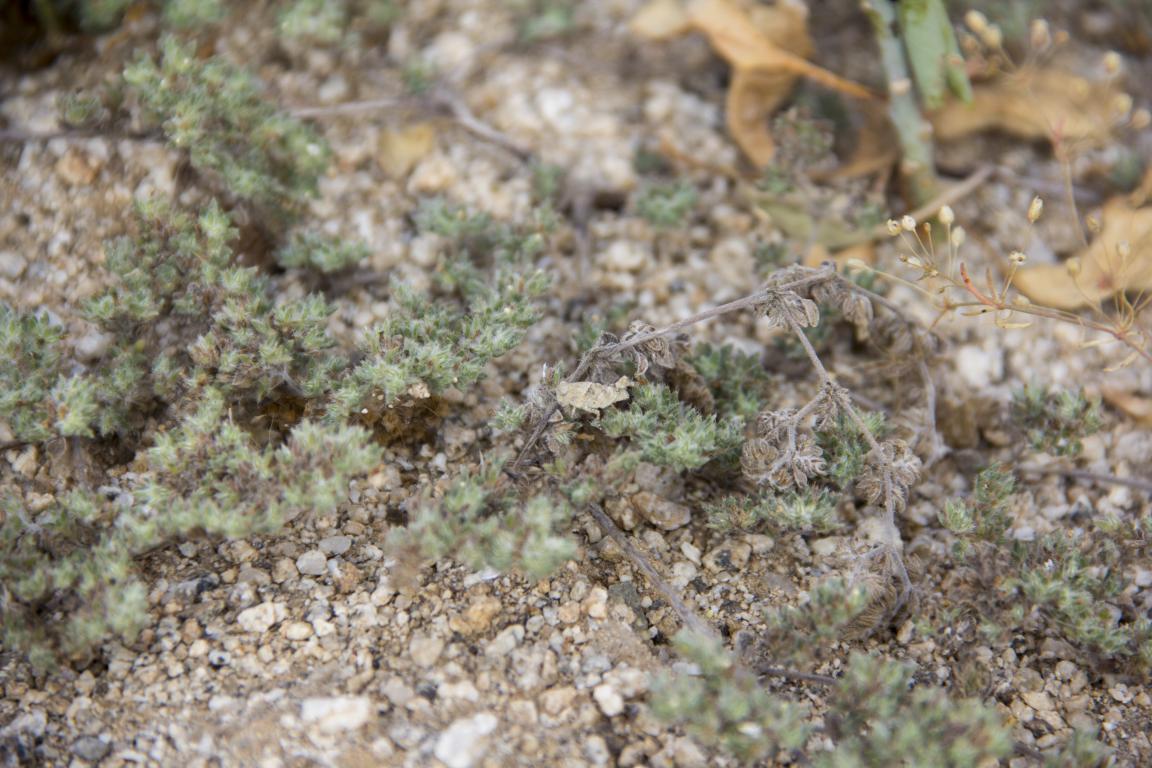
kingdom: Plantae
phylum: Tracheophyta
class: Magnoliopsida
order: Boraginales
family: Ehretiaceae
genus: Tiquilia
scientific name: Tiquilia paronychioides
